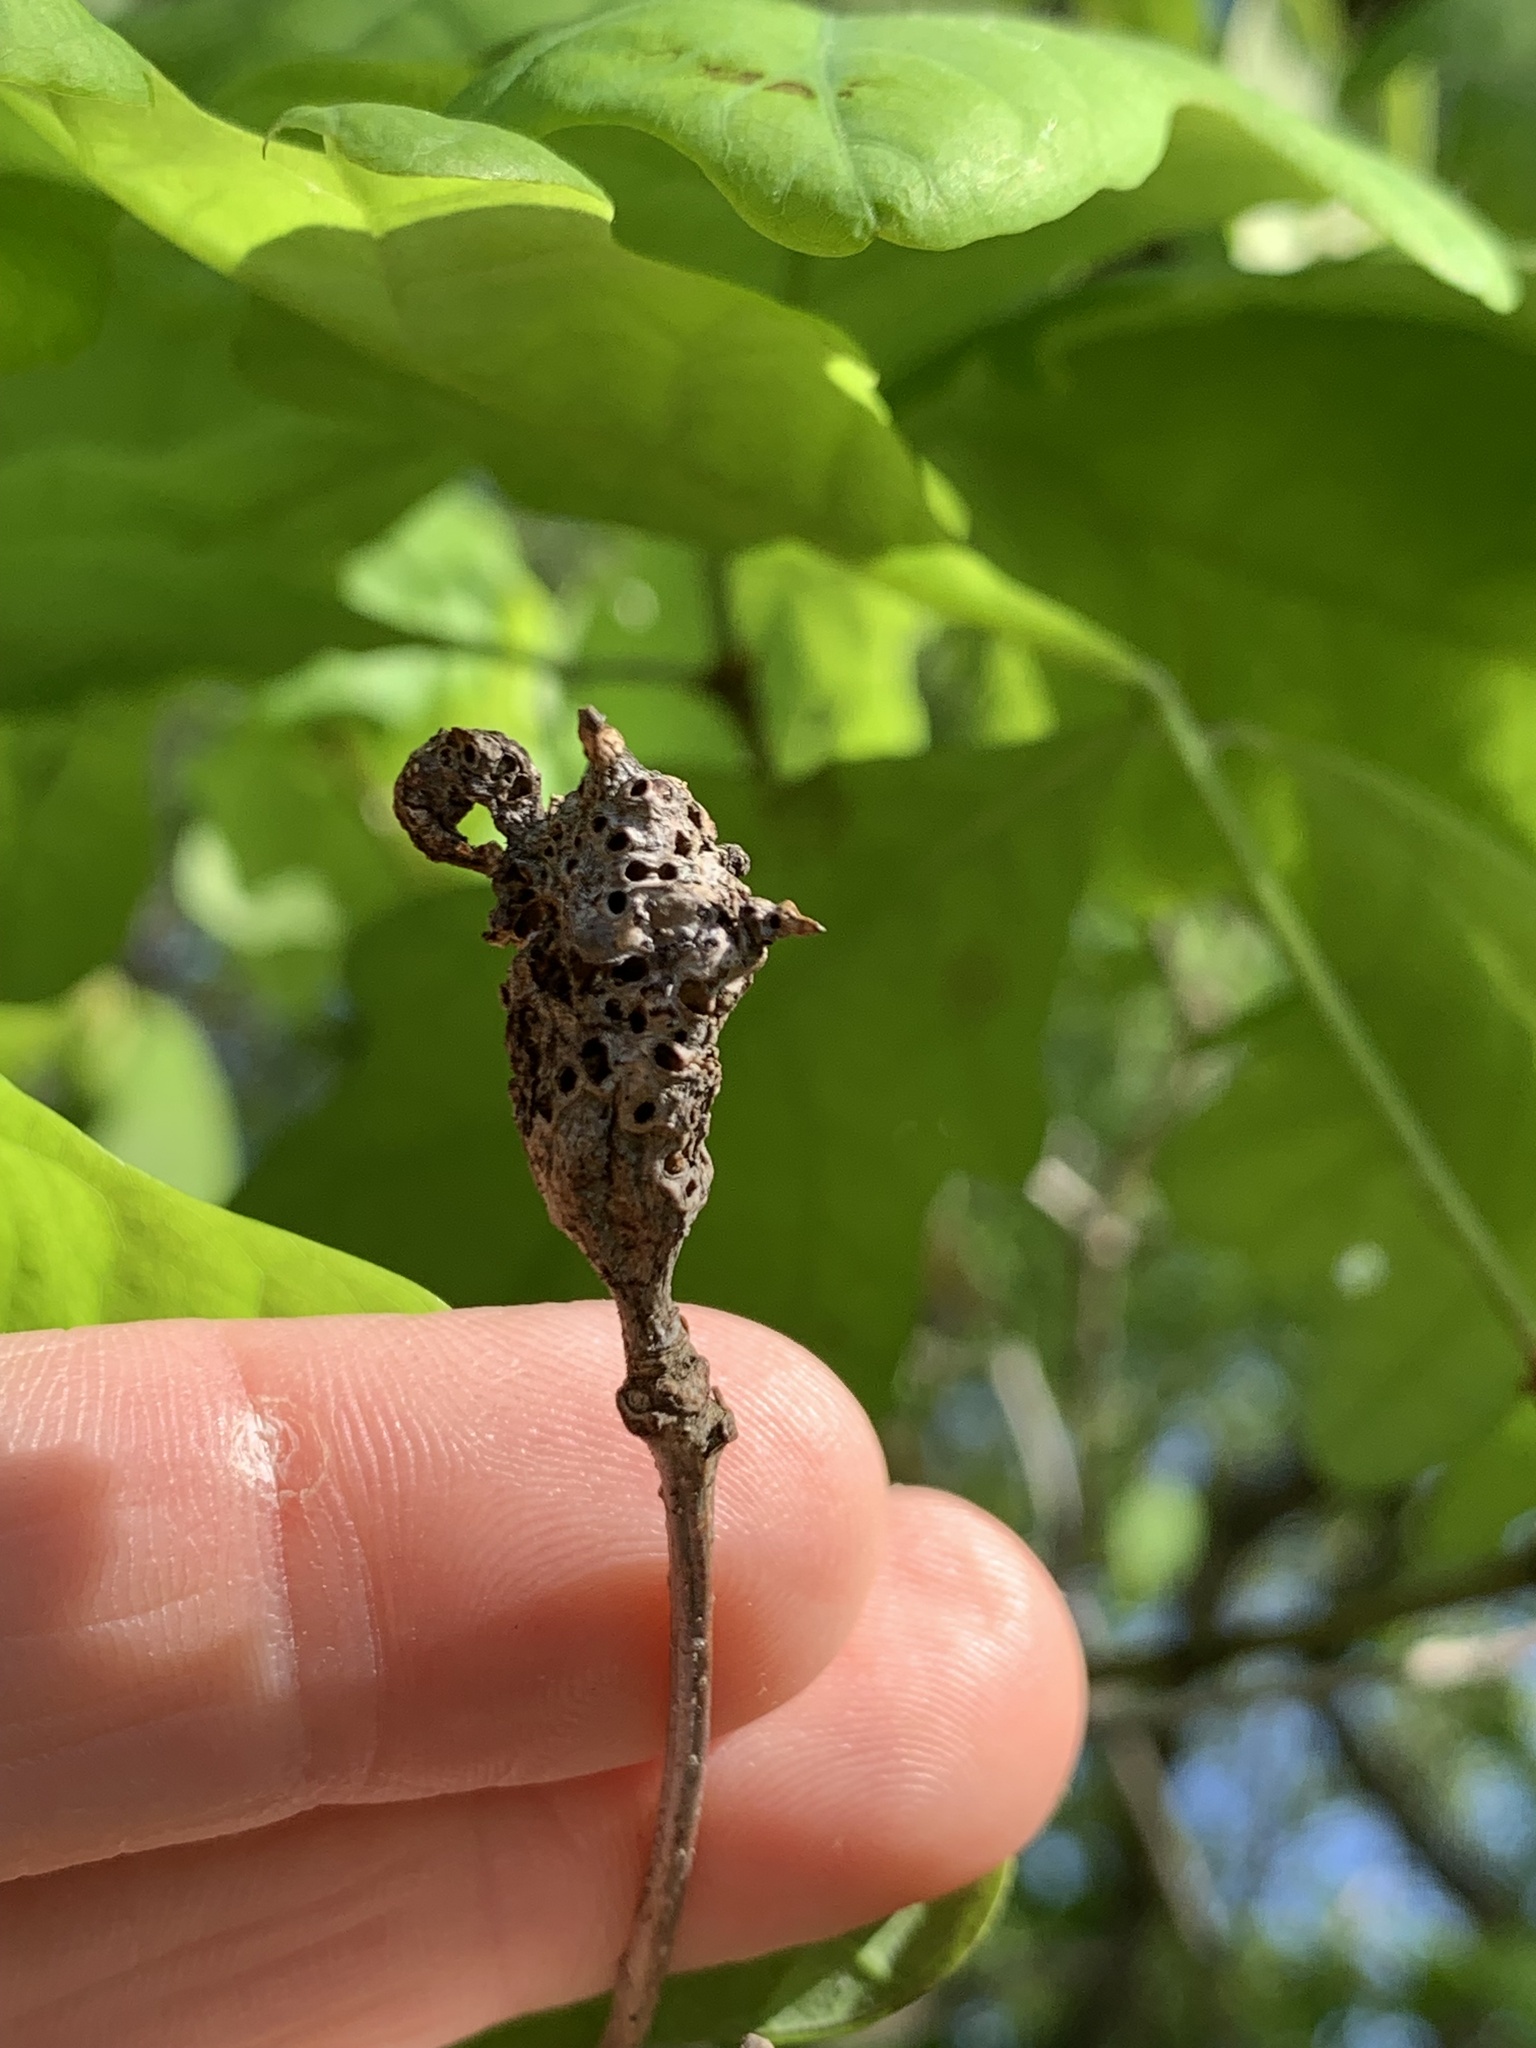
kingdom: Animalia
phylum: Arthropoda
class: Insecta
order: Hymenoptera
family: Cynipidae
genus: Neuroterus
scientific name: Neuroterus quercusbaccarum
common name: Common spangle gall
